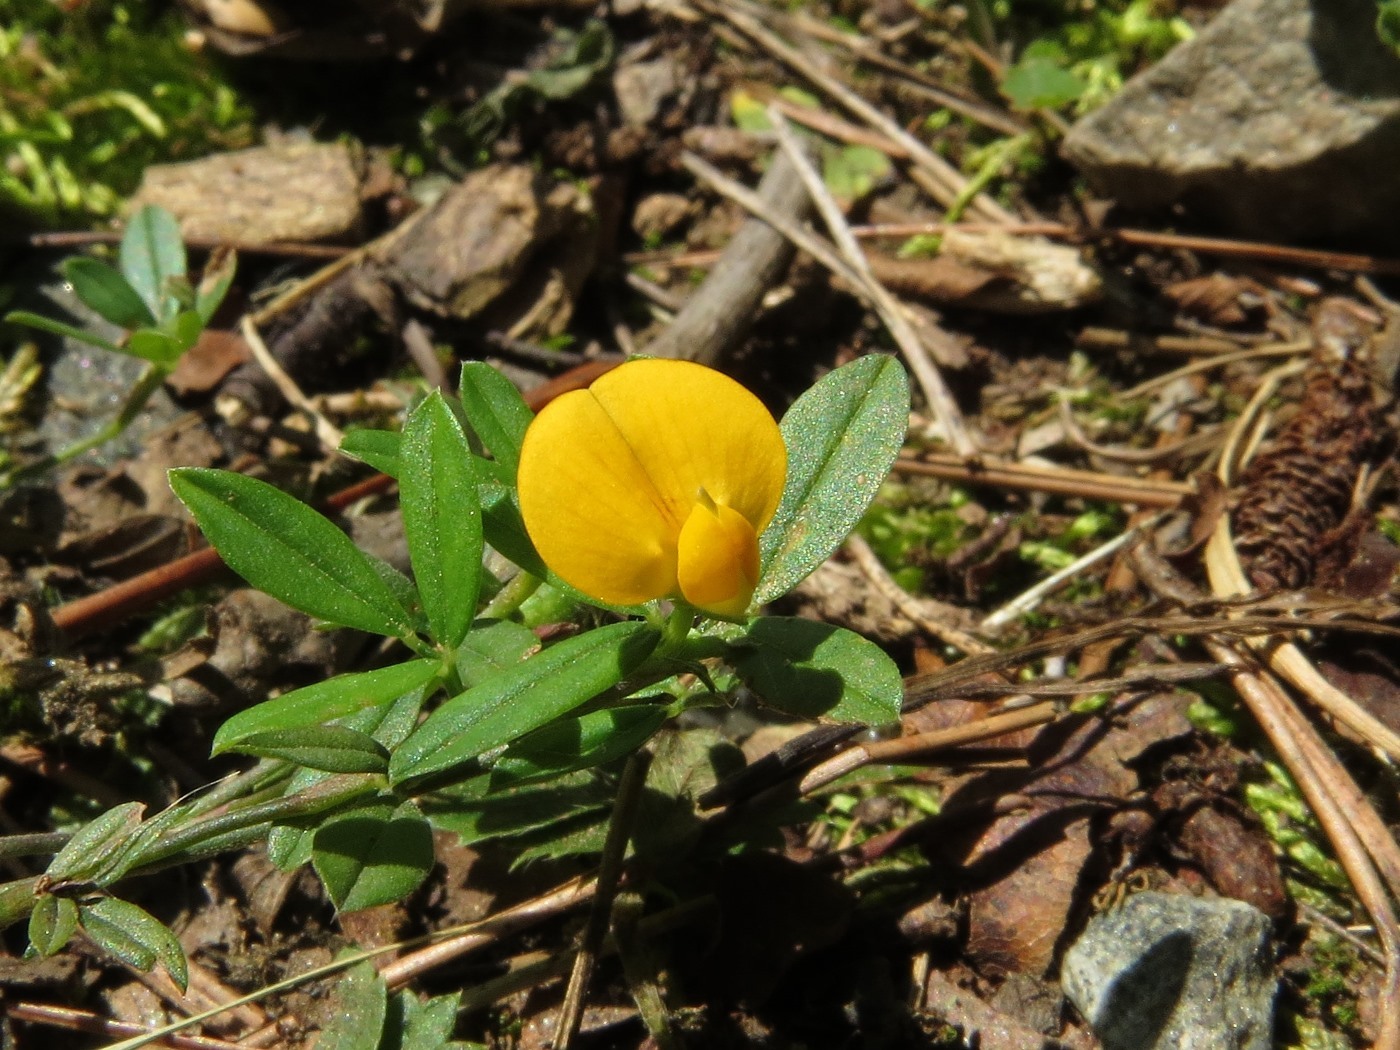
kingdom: Plantae
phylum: Tracheophyta
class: Magnoliopsida
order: Fabales
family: Fabaceae
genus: Stylosanthes
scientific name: Stylosanthes biflora
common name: Two-flower pencil-flower
